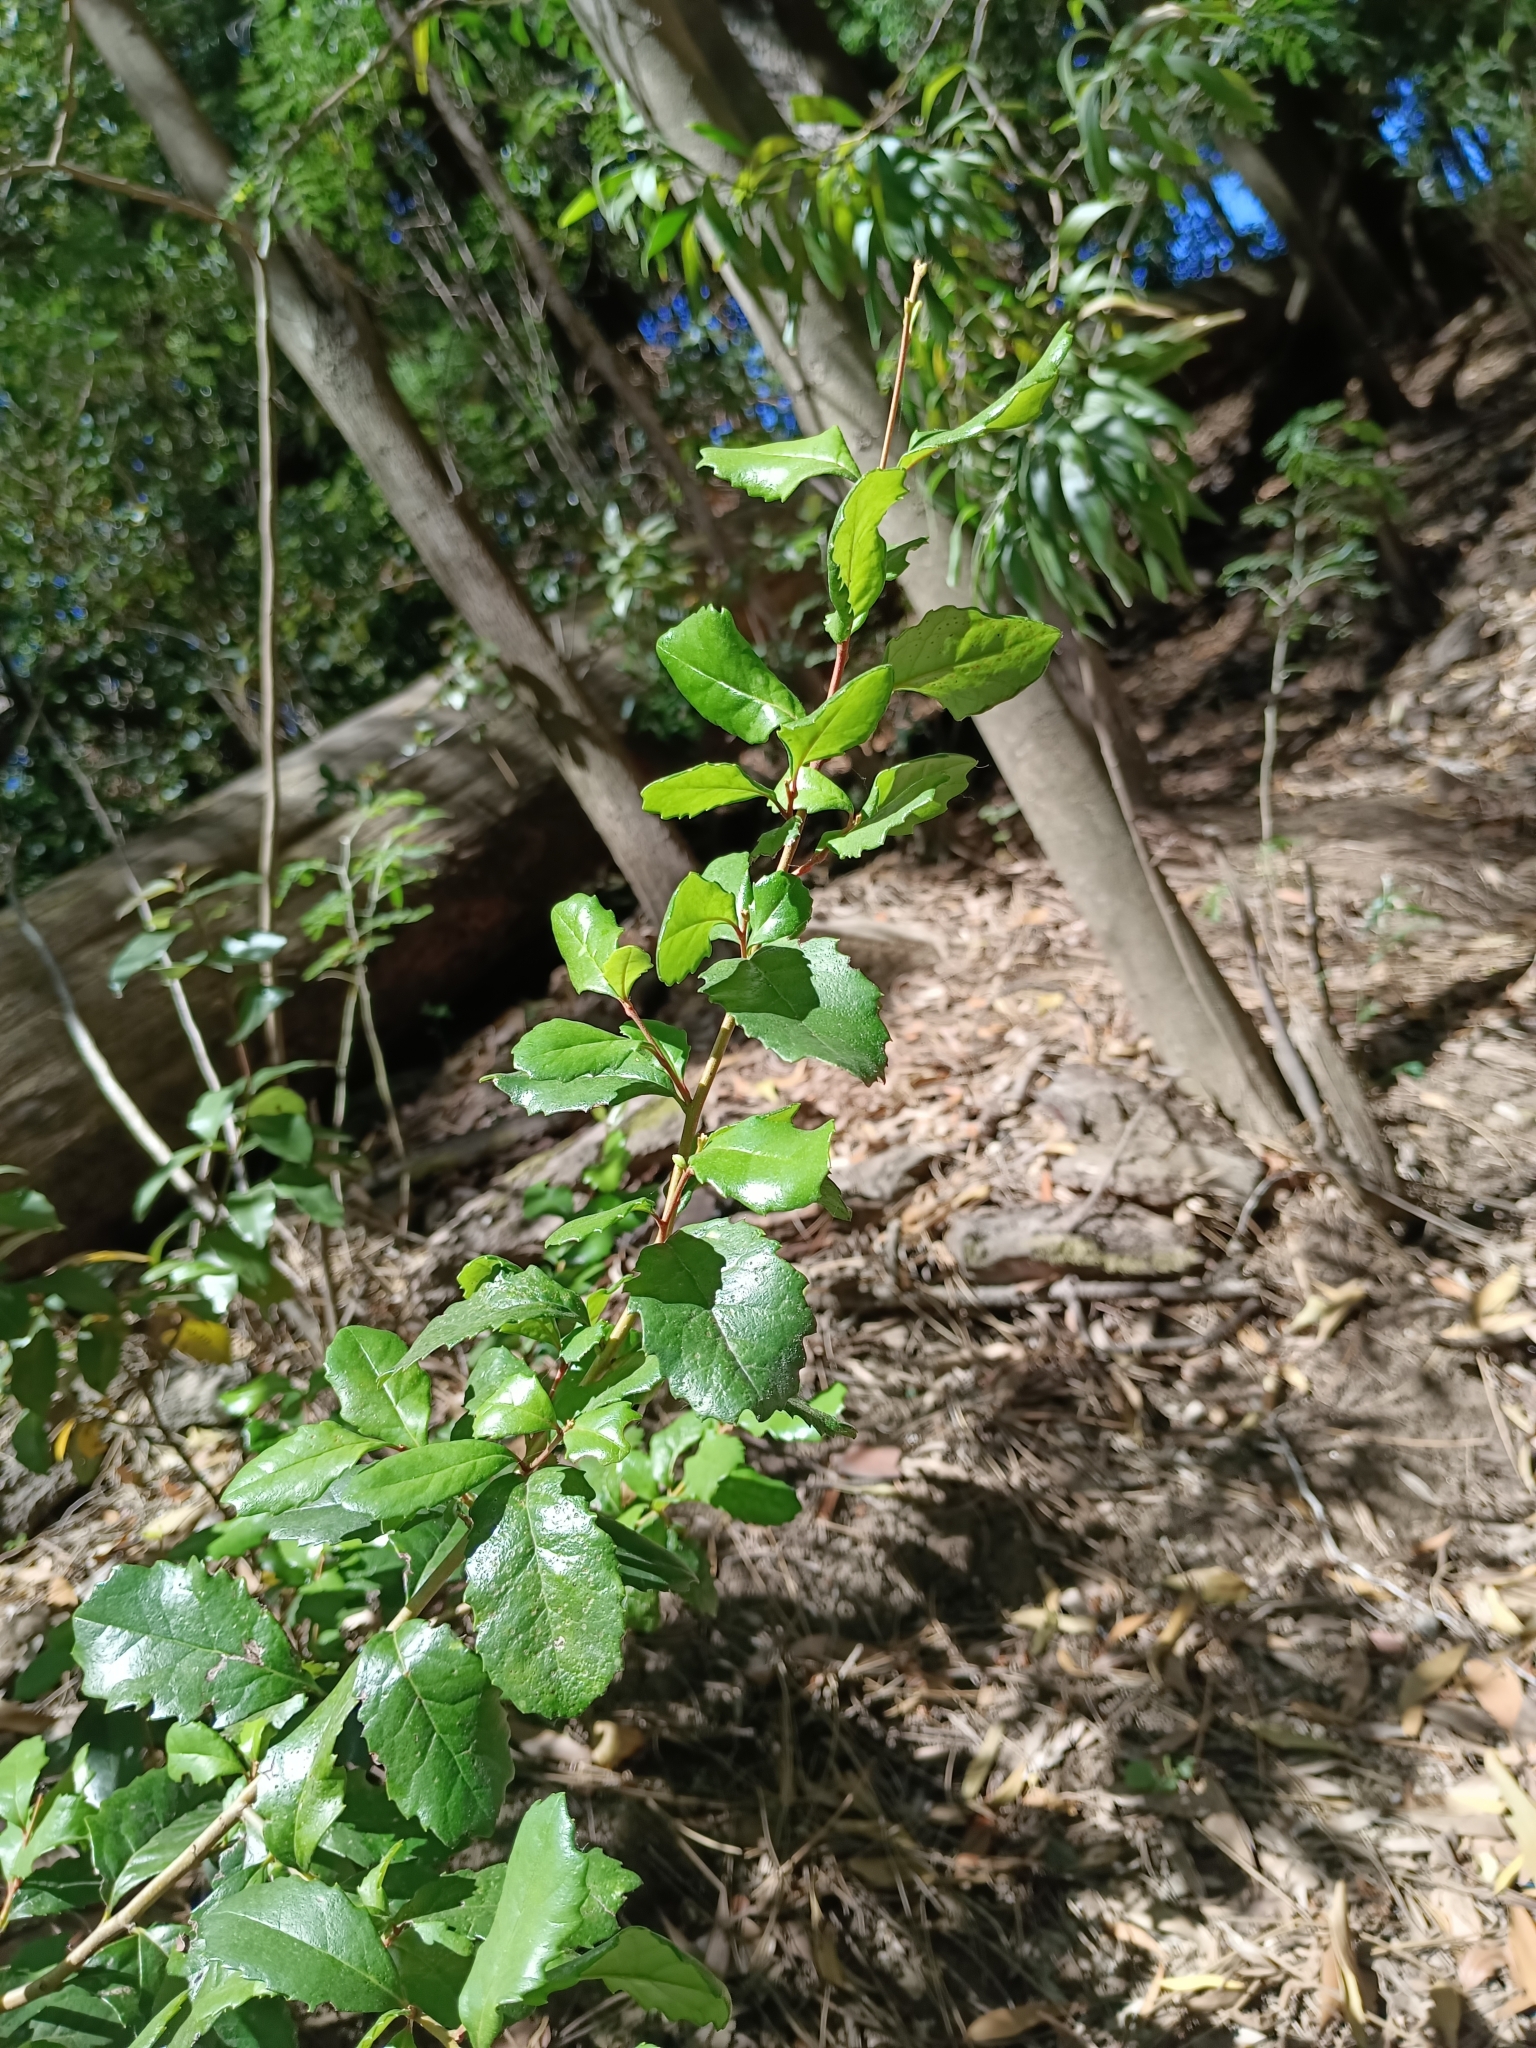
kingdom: Plantae
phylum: Tracheophyta
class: Magnoliopsida
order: Proteales
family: Proteaceae
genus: Lomatia
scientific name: Lomatia dentata
